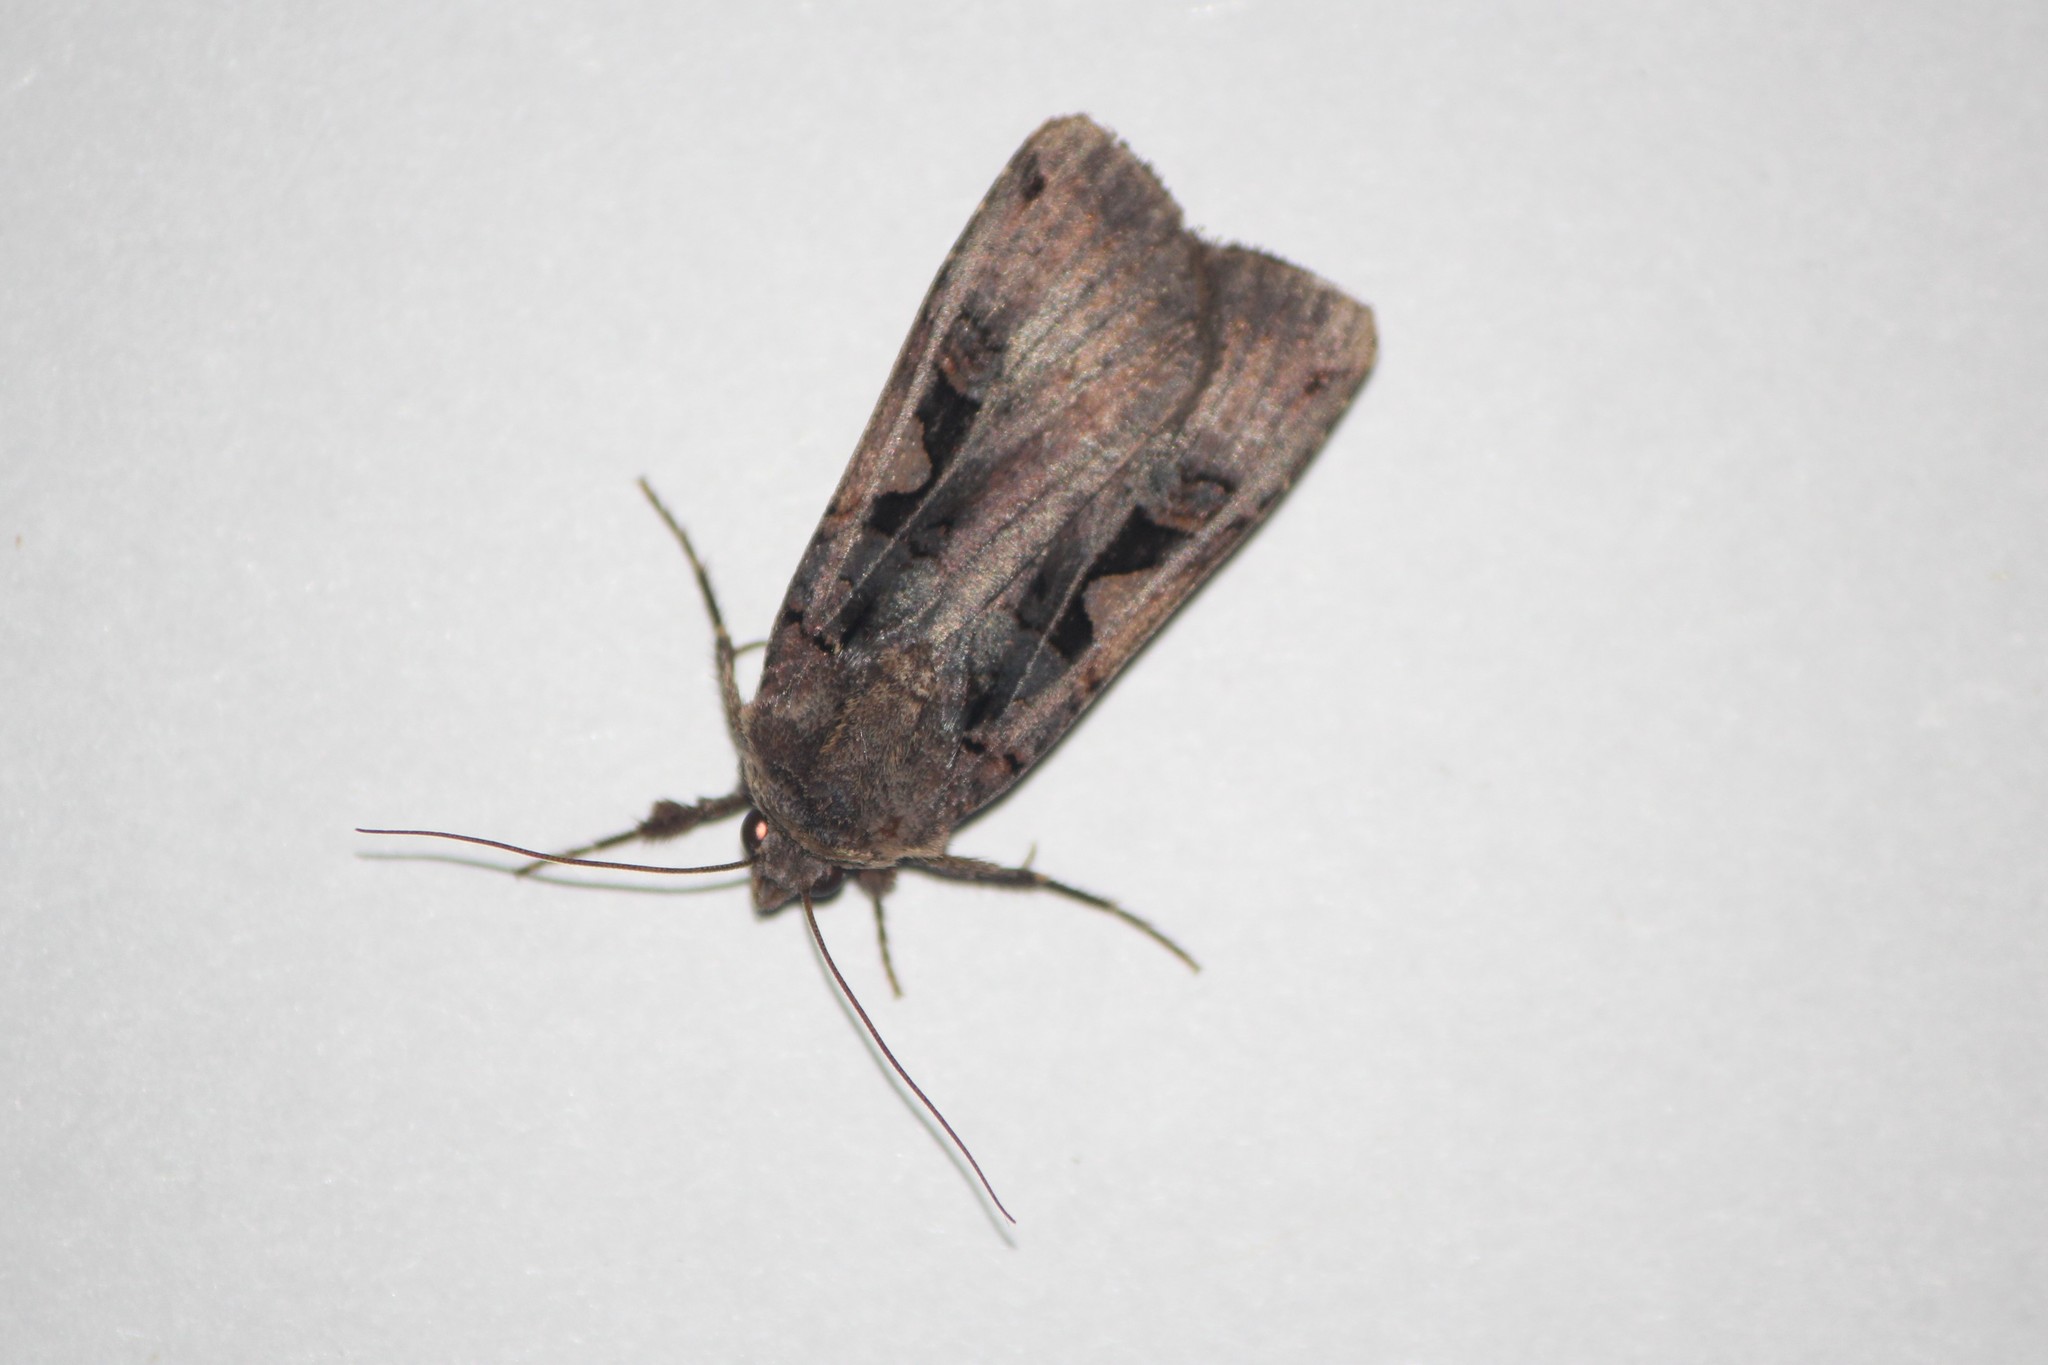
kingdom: Animalia
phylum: Arthropoda
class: Insecta
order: Lepidoptera
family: Noctuidae
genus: Xestia
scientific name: Xestia c-nigrum
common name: Setaceous hebrew character
